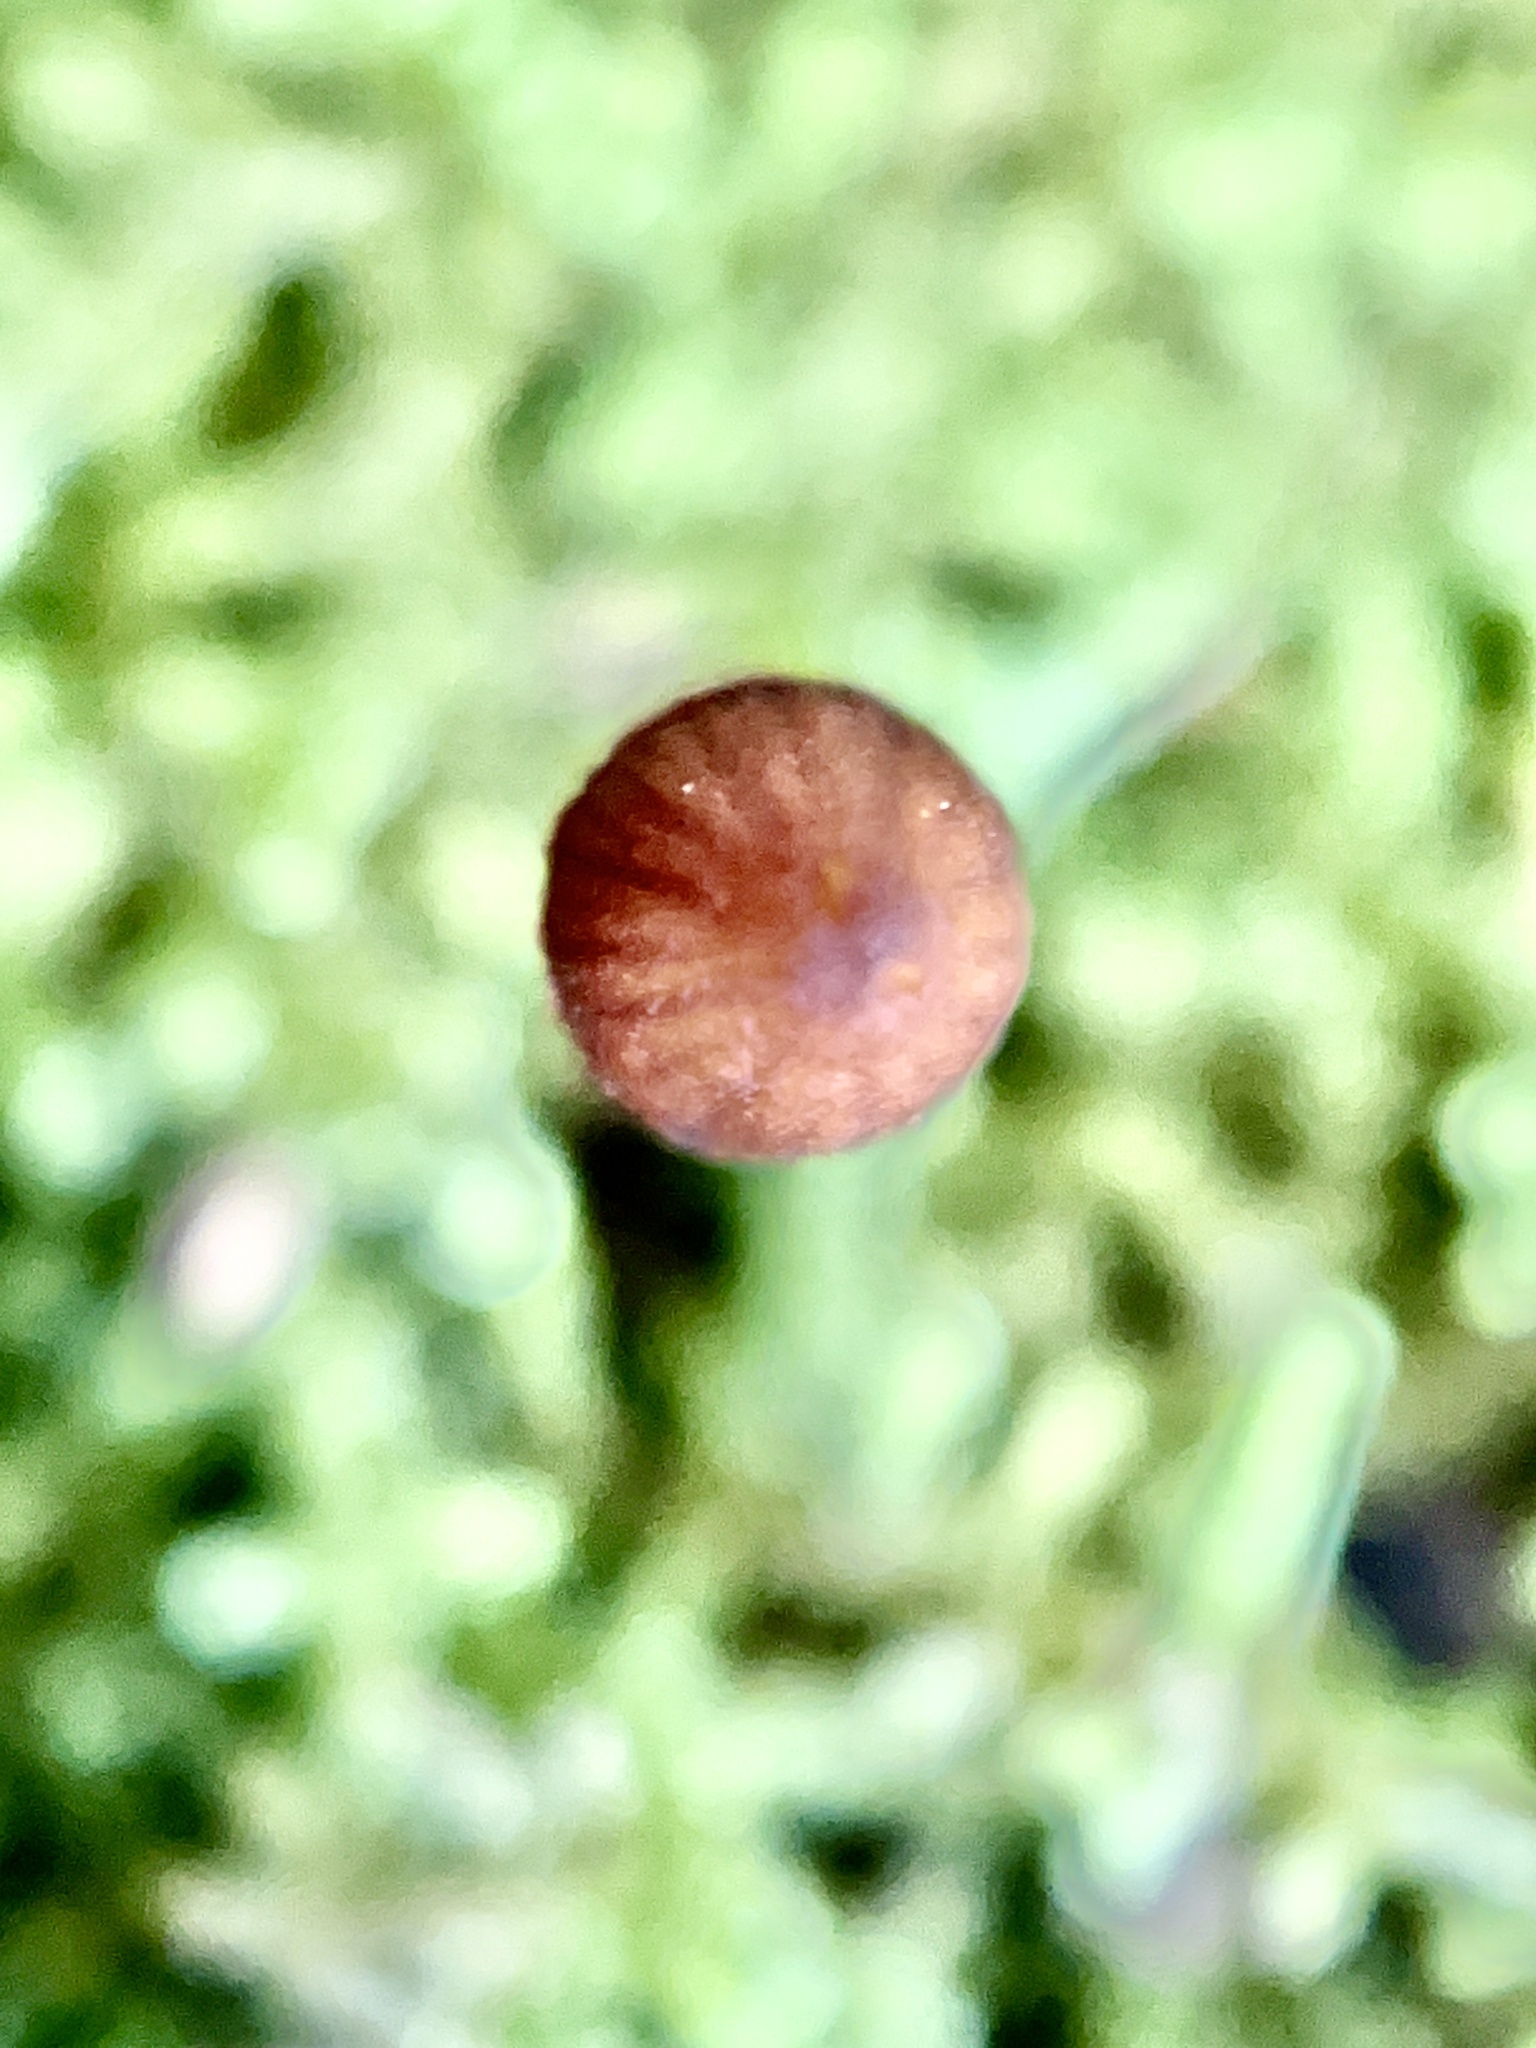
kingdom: Fungi
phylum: Basidiomycota
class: Agaricomycetes
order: Agaricales
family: Hymenogastraceae
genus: Galerina
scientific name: Galerina hypnorum
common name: Moss bell
